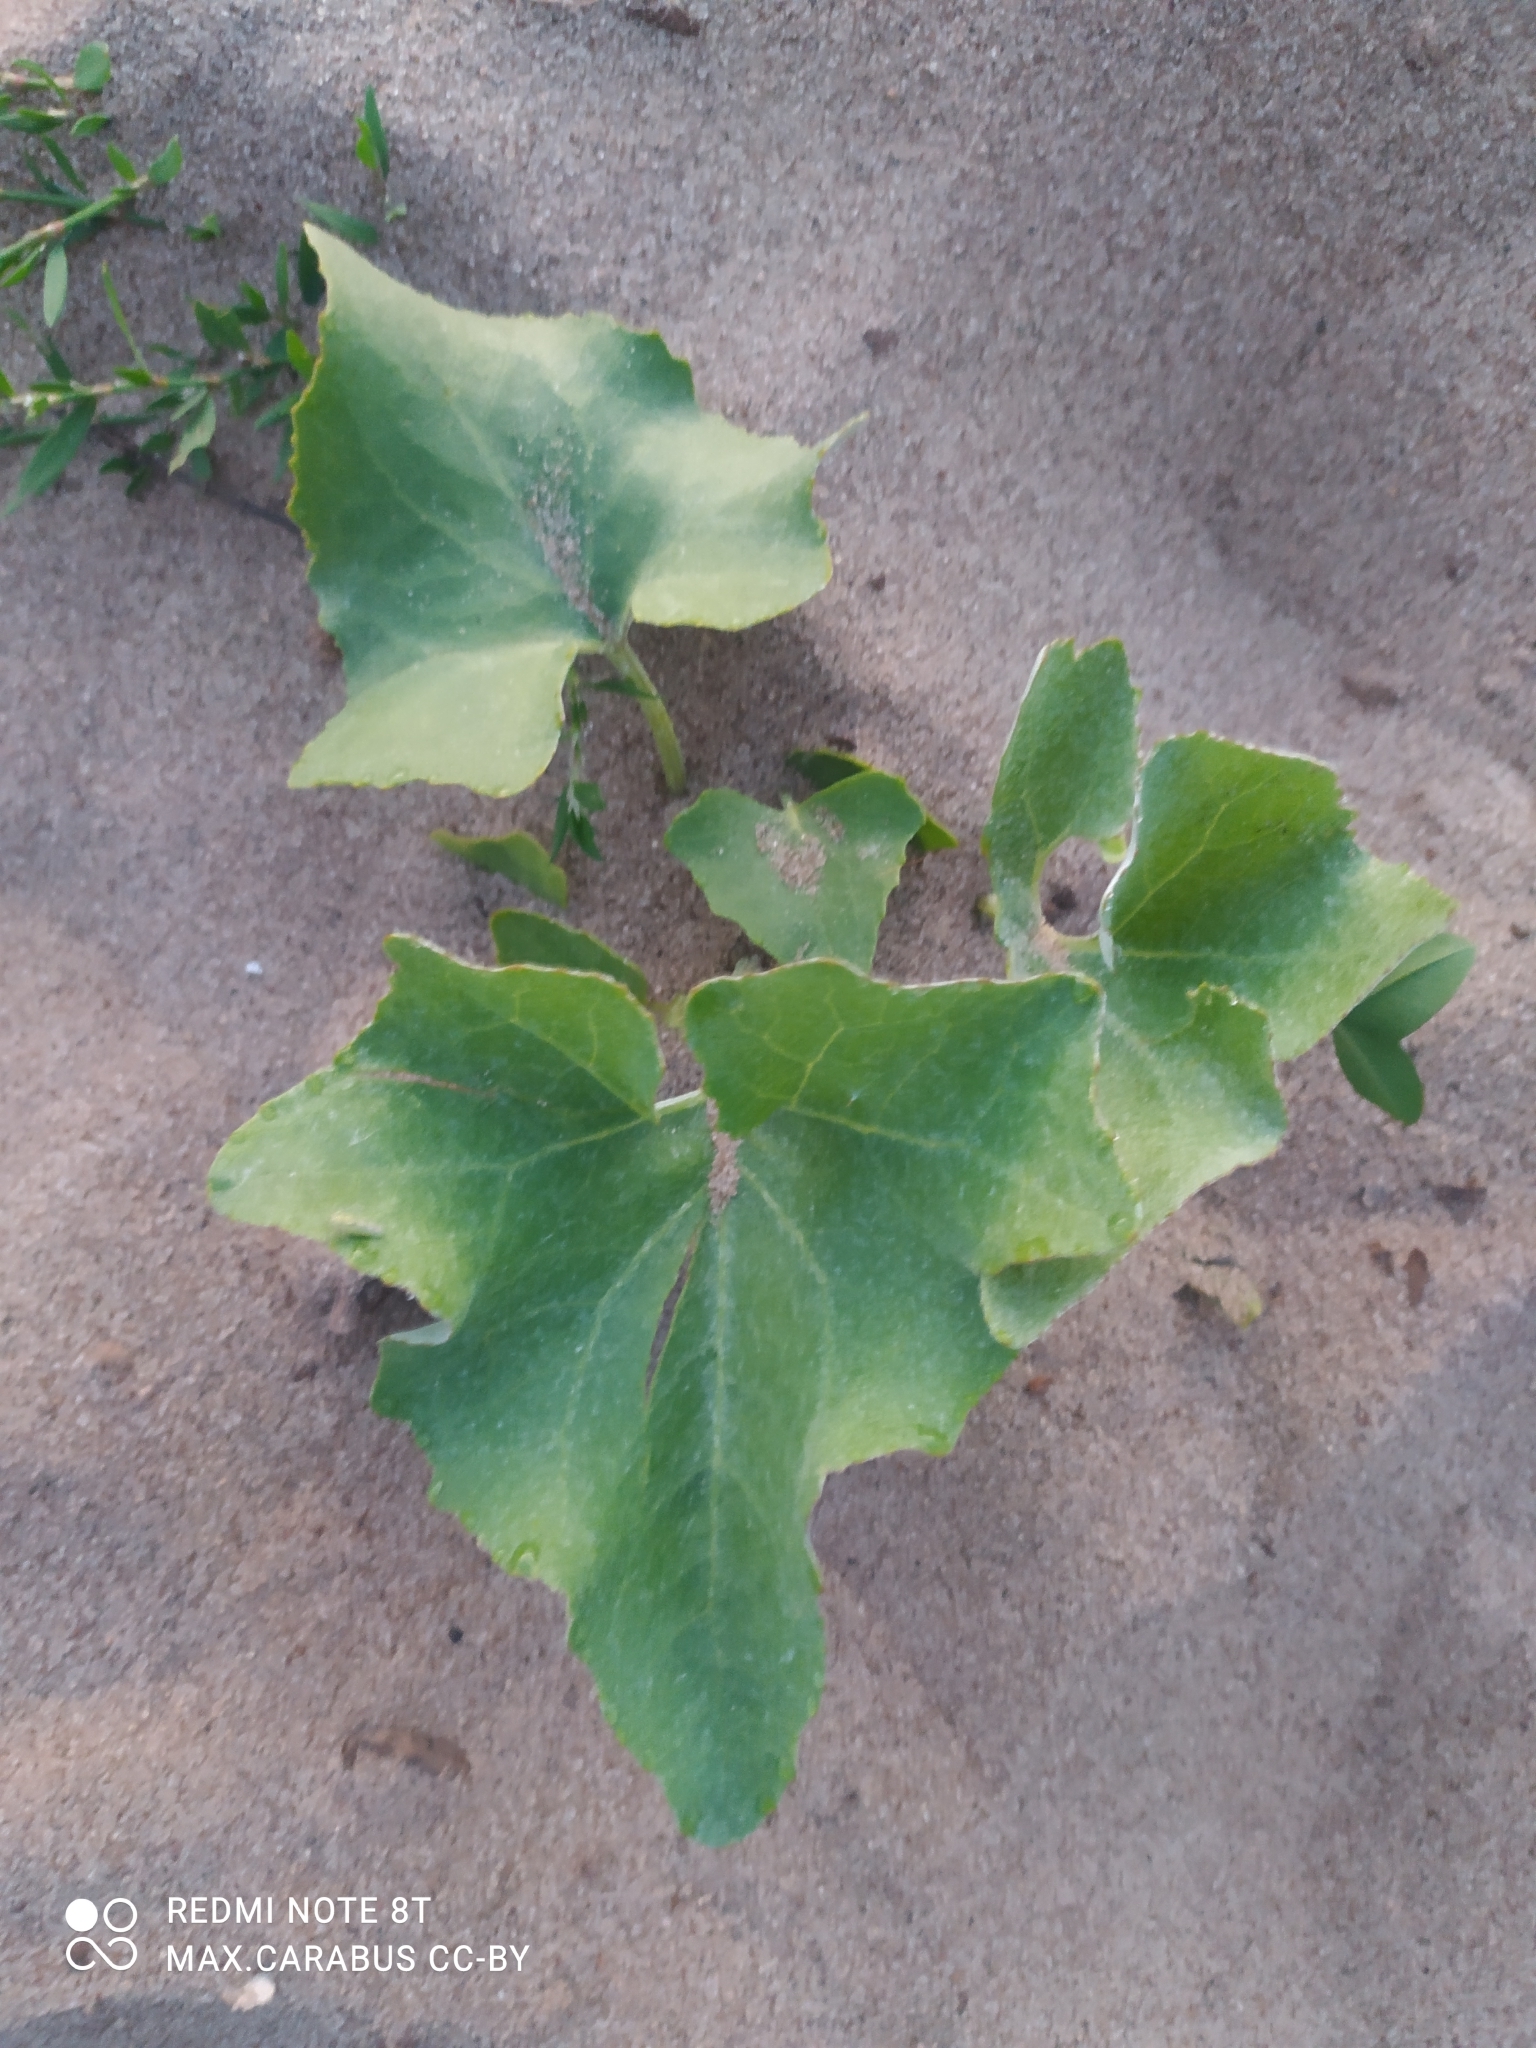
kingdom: Plantae
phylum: Tracheophyta
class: Magnoliopsida
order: Asterales
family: Asteraceae
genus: Petasites
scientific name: Petasites spurius
